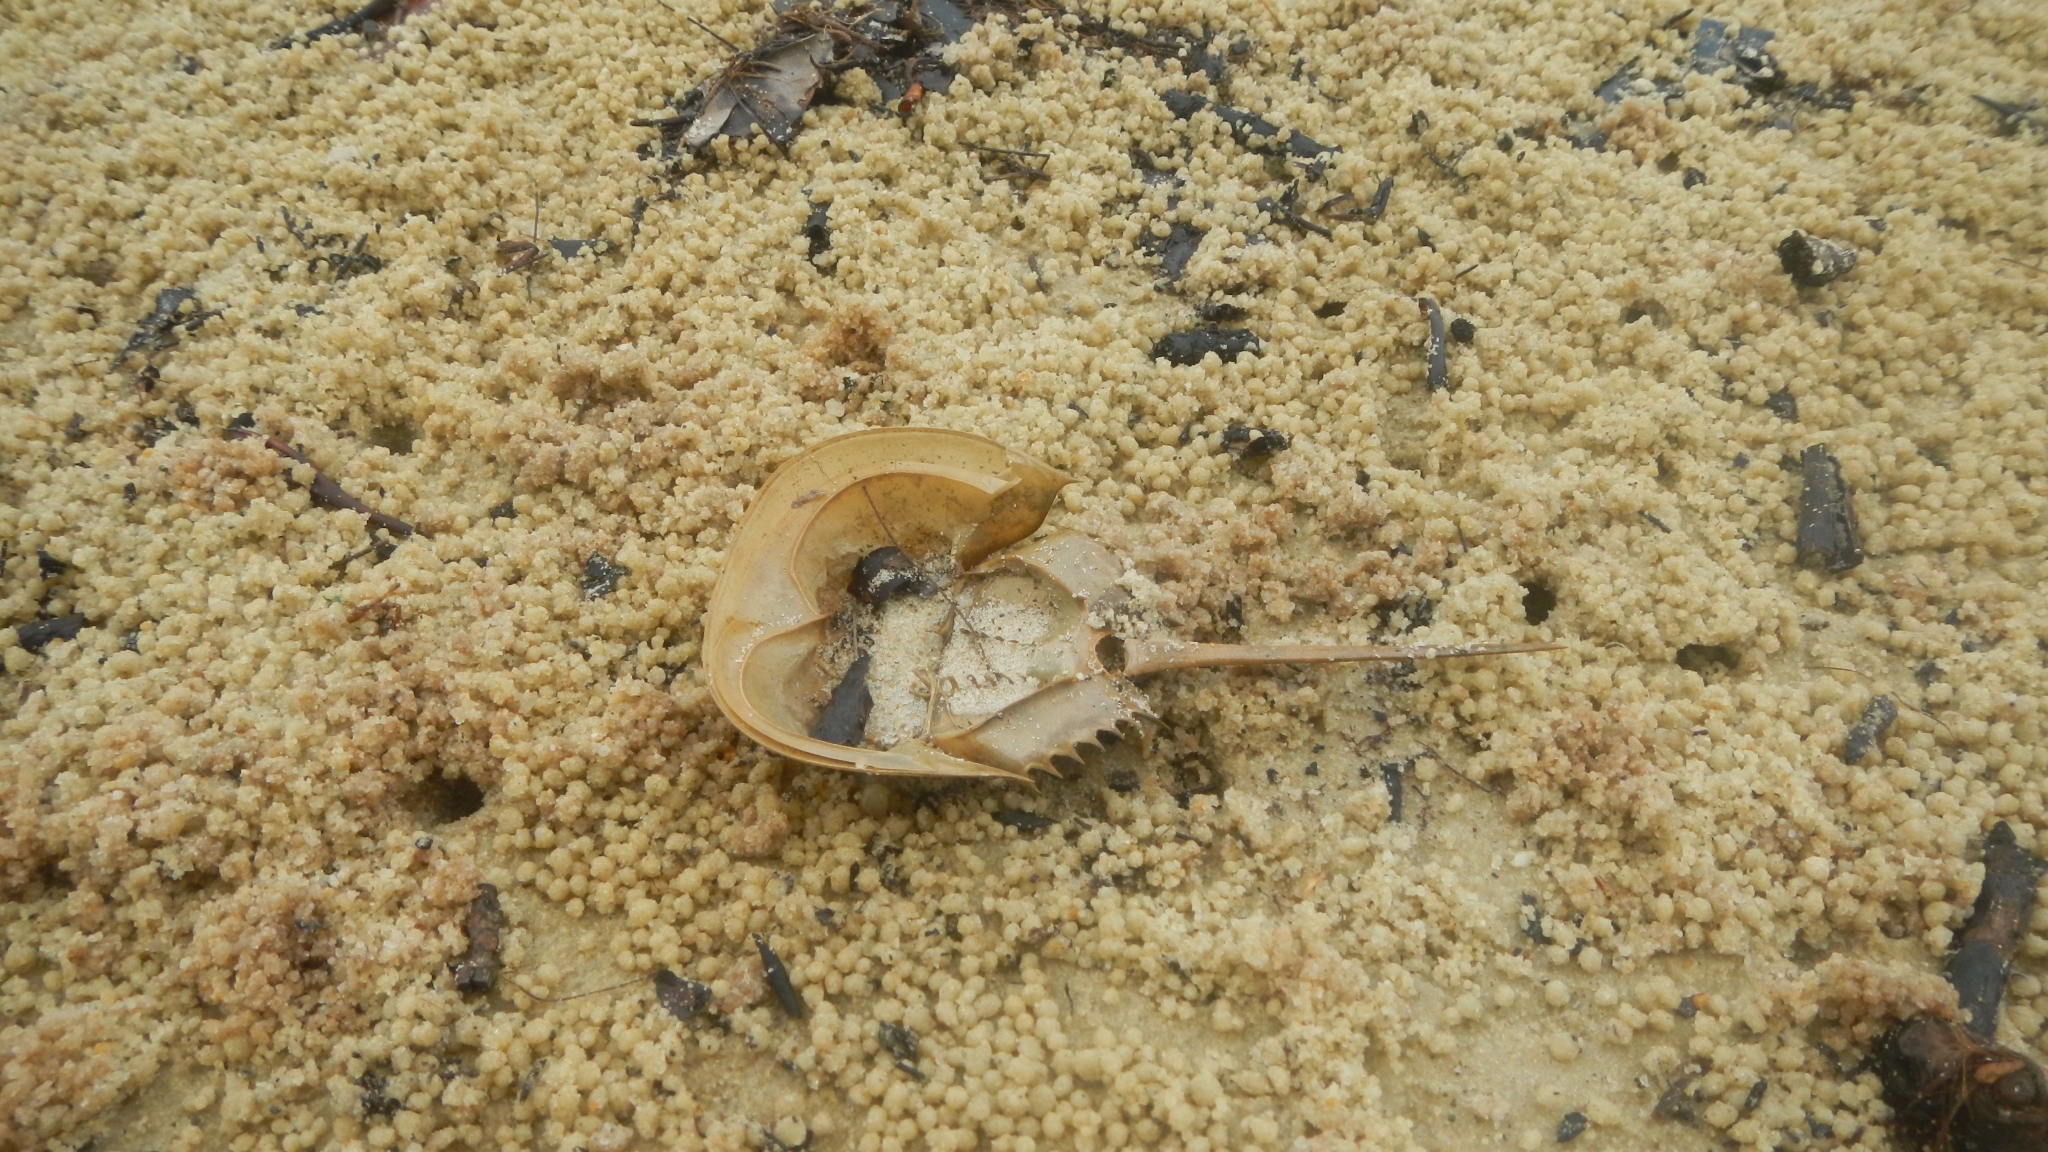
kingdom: Animalia
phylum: Arthropoda
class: Merostomata
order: Xiphosurida
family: Limulidae
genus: Tachypleus
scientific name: Tachypleus tridentatus
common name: Tri-spine horseshoe crab
